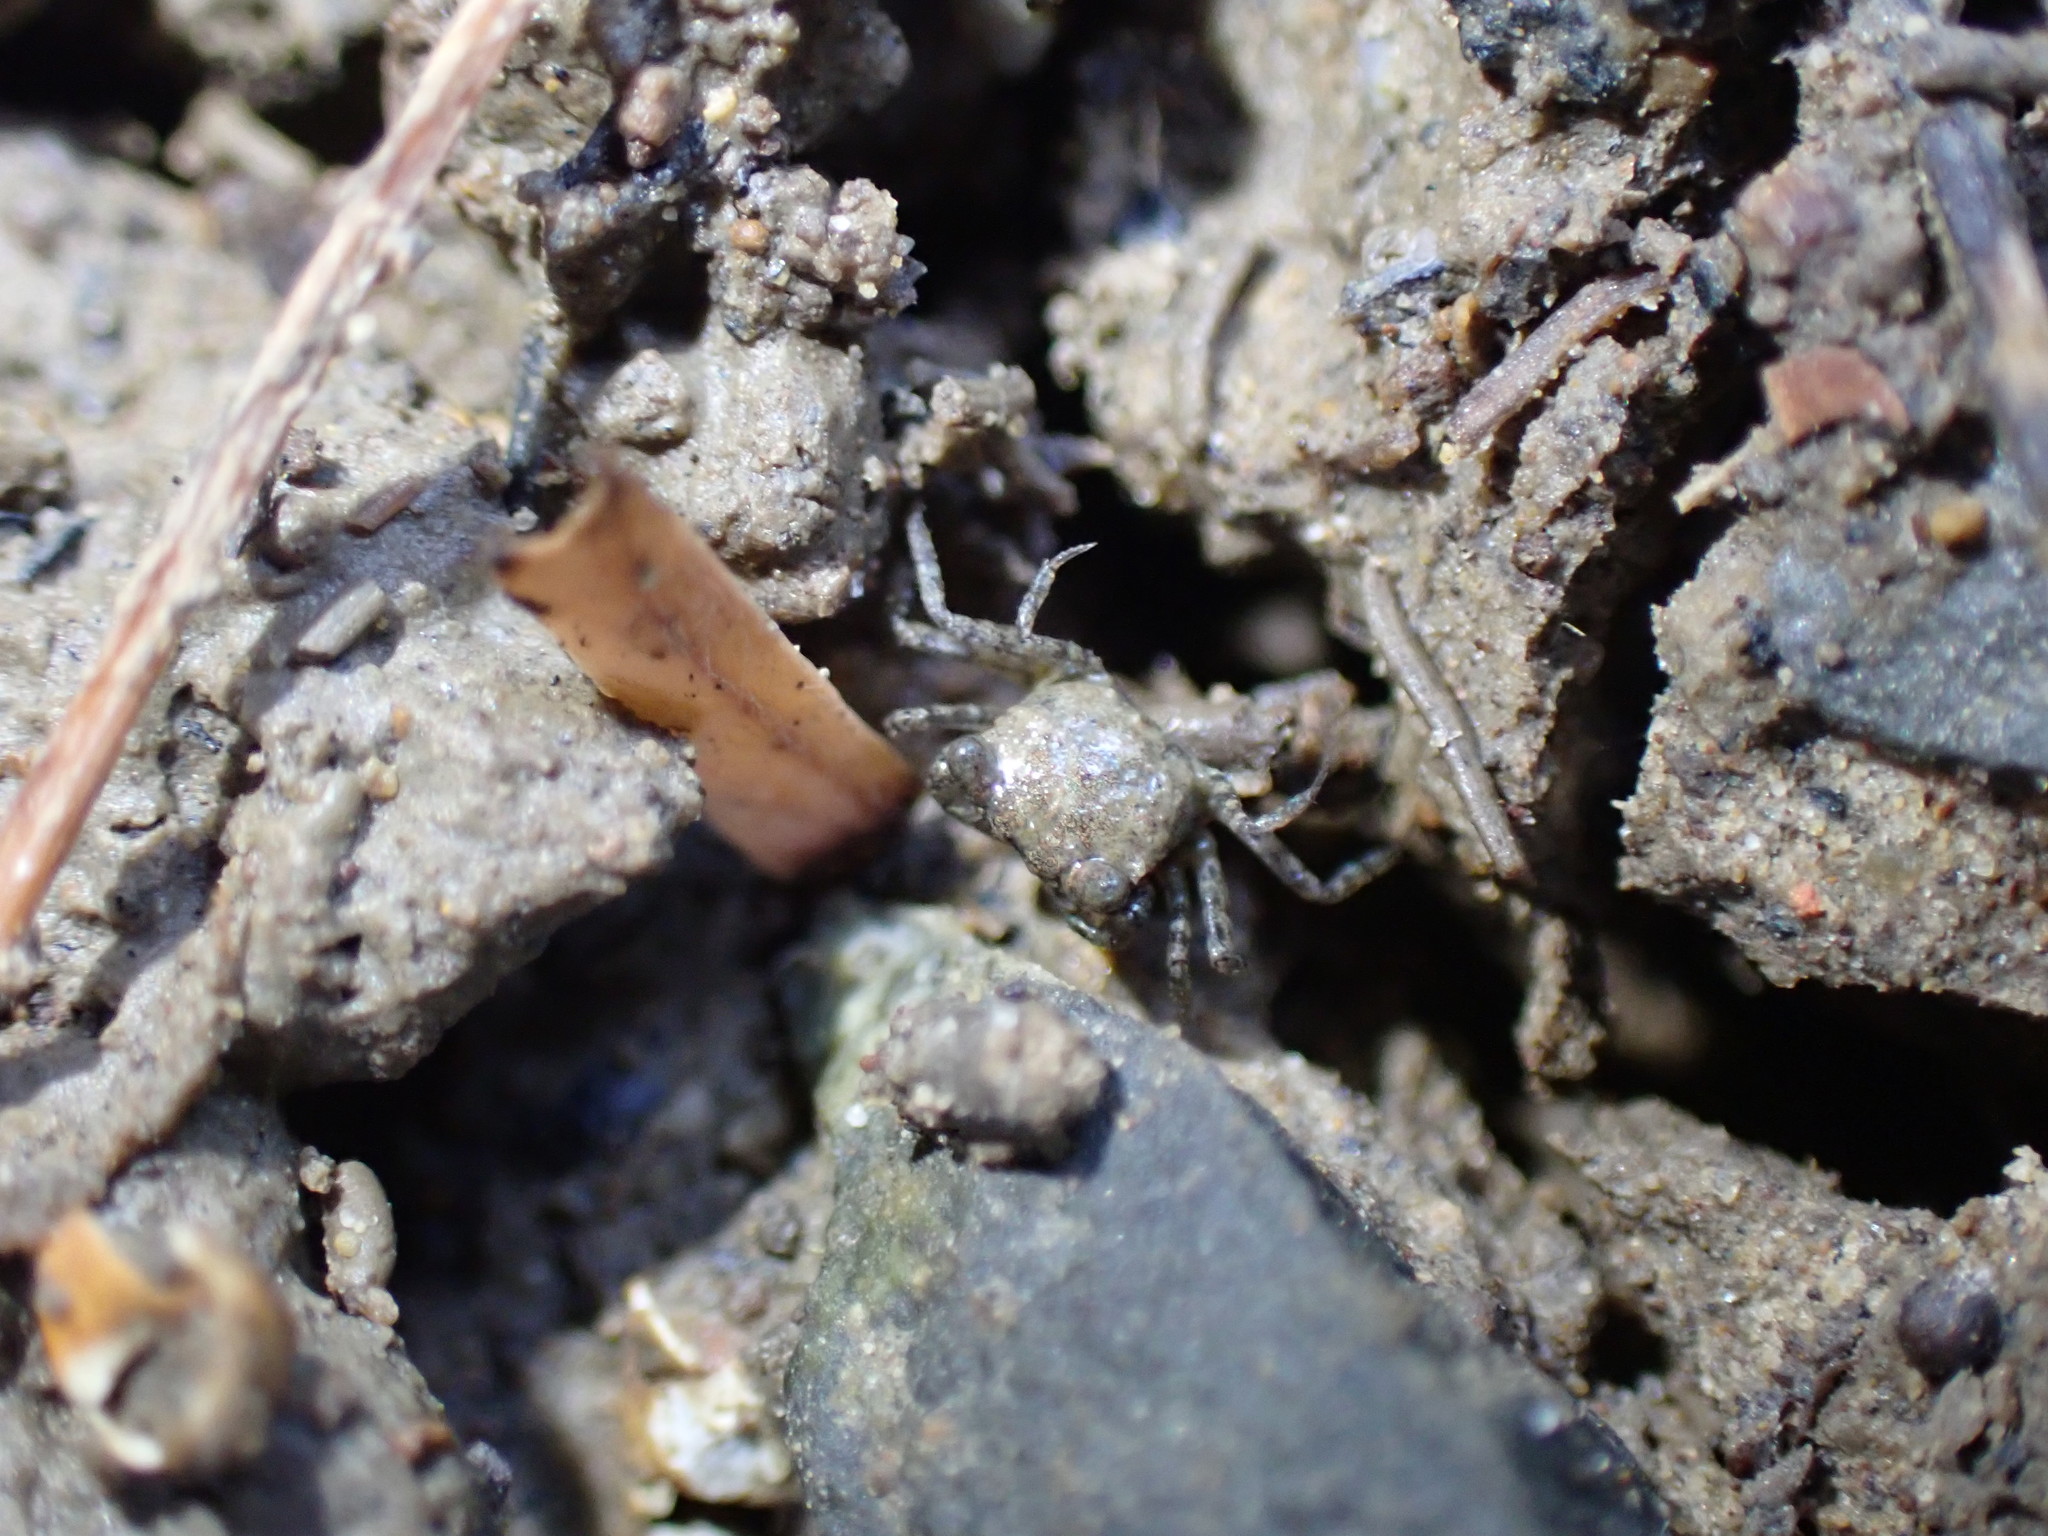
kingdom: Animalia
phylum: Arthropoda
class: Malacostraca
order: Decapoda
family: Varunidae
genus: Austrohelice
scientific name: Austrohelice crassa
